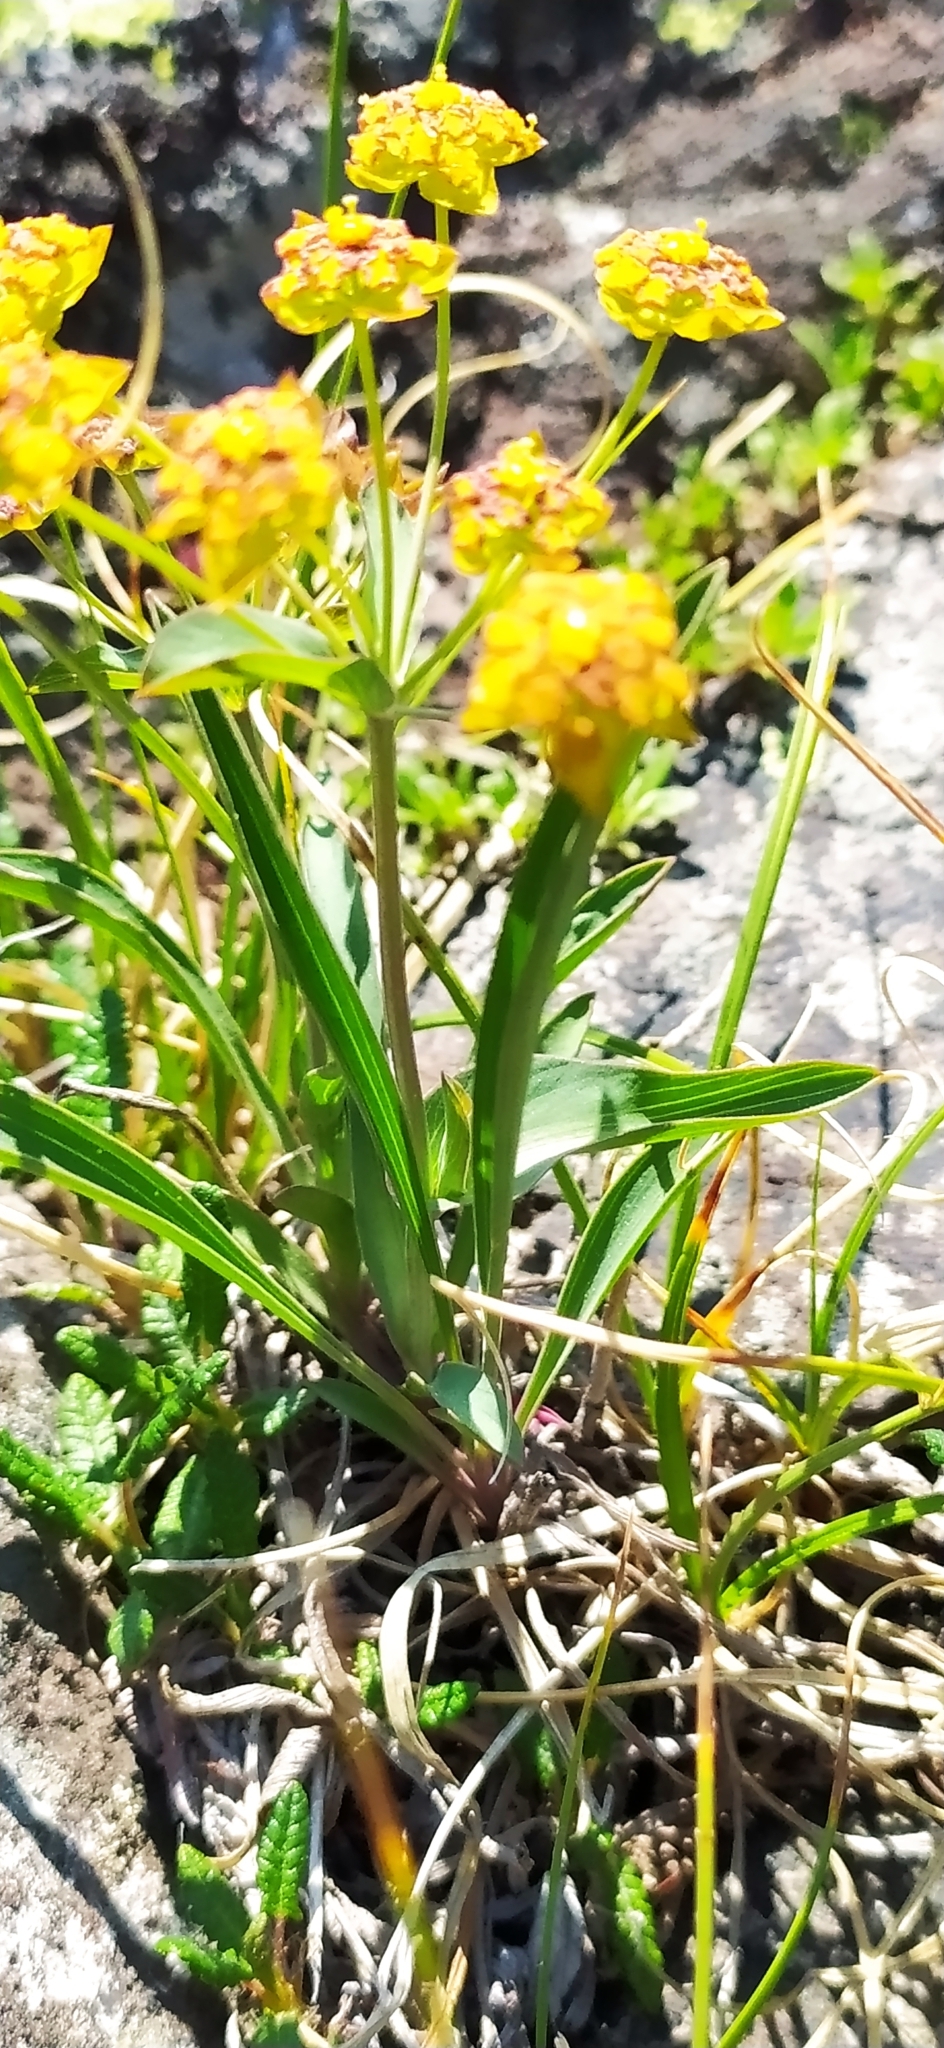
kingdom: Plantae
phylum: Tracheophyta
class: Magnoliopsida
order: Apiales
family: Apiaceae
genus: Bupleurum
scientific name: Bupleurum multinerve
